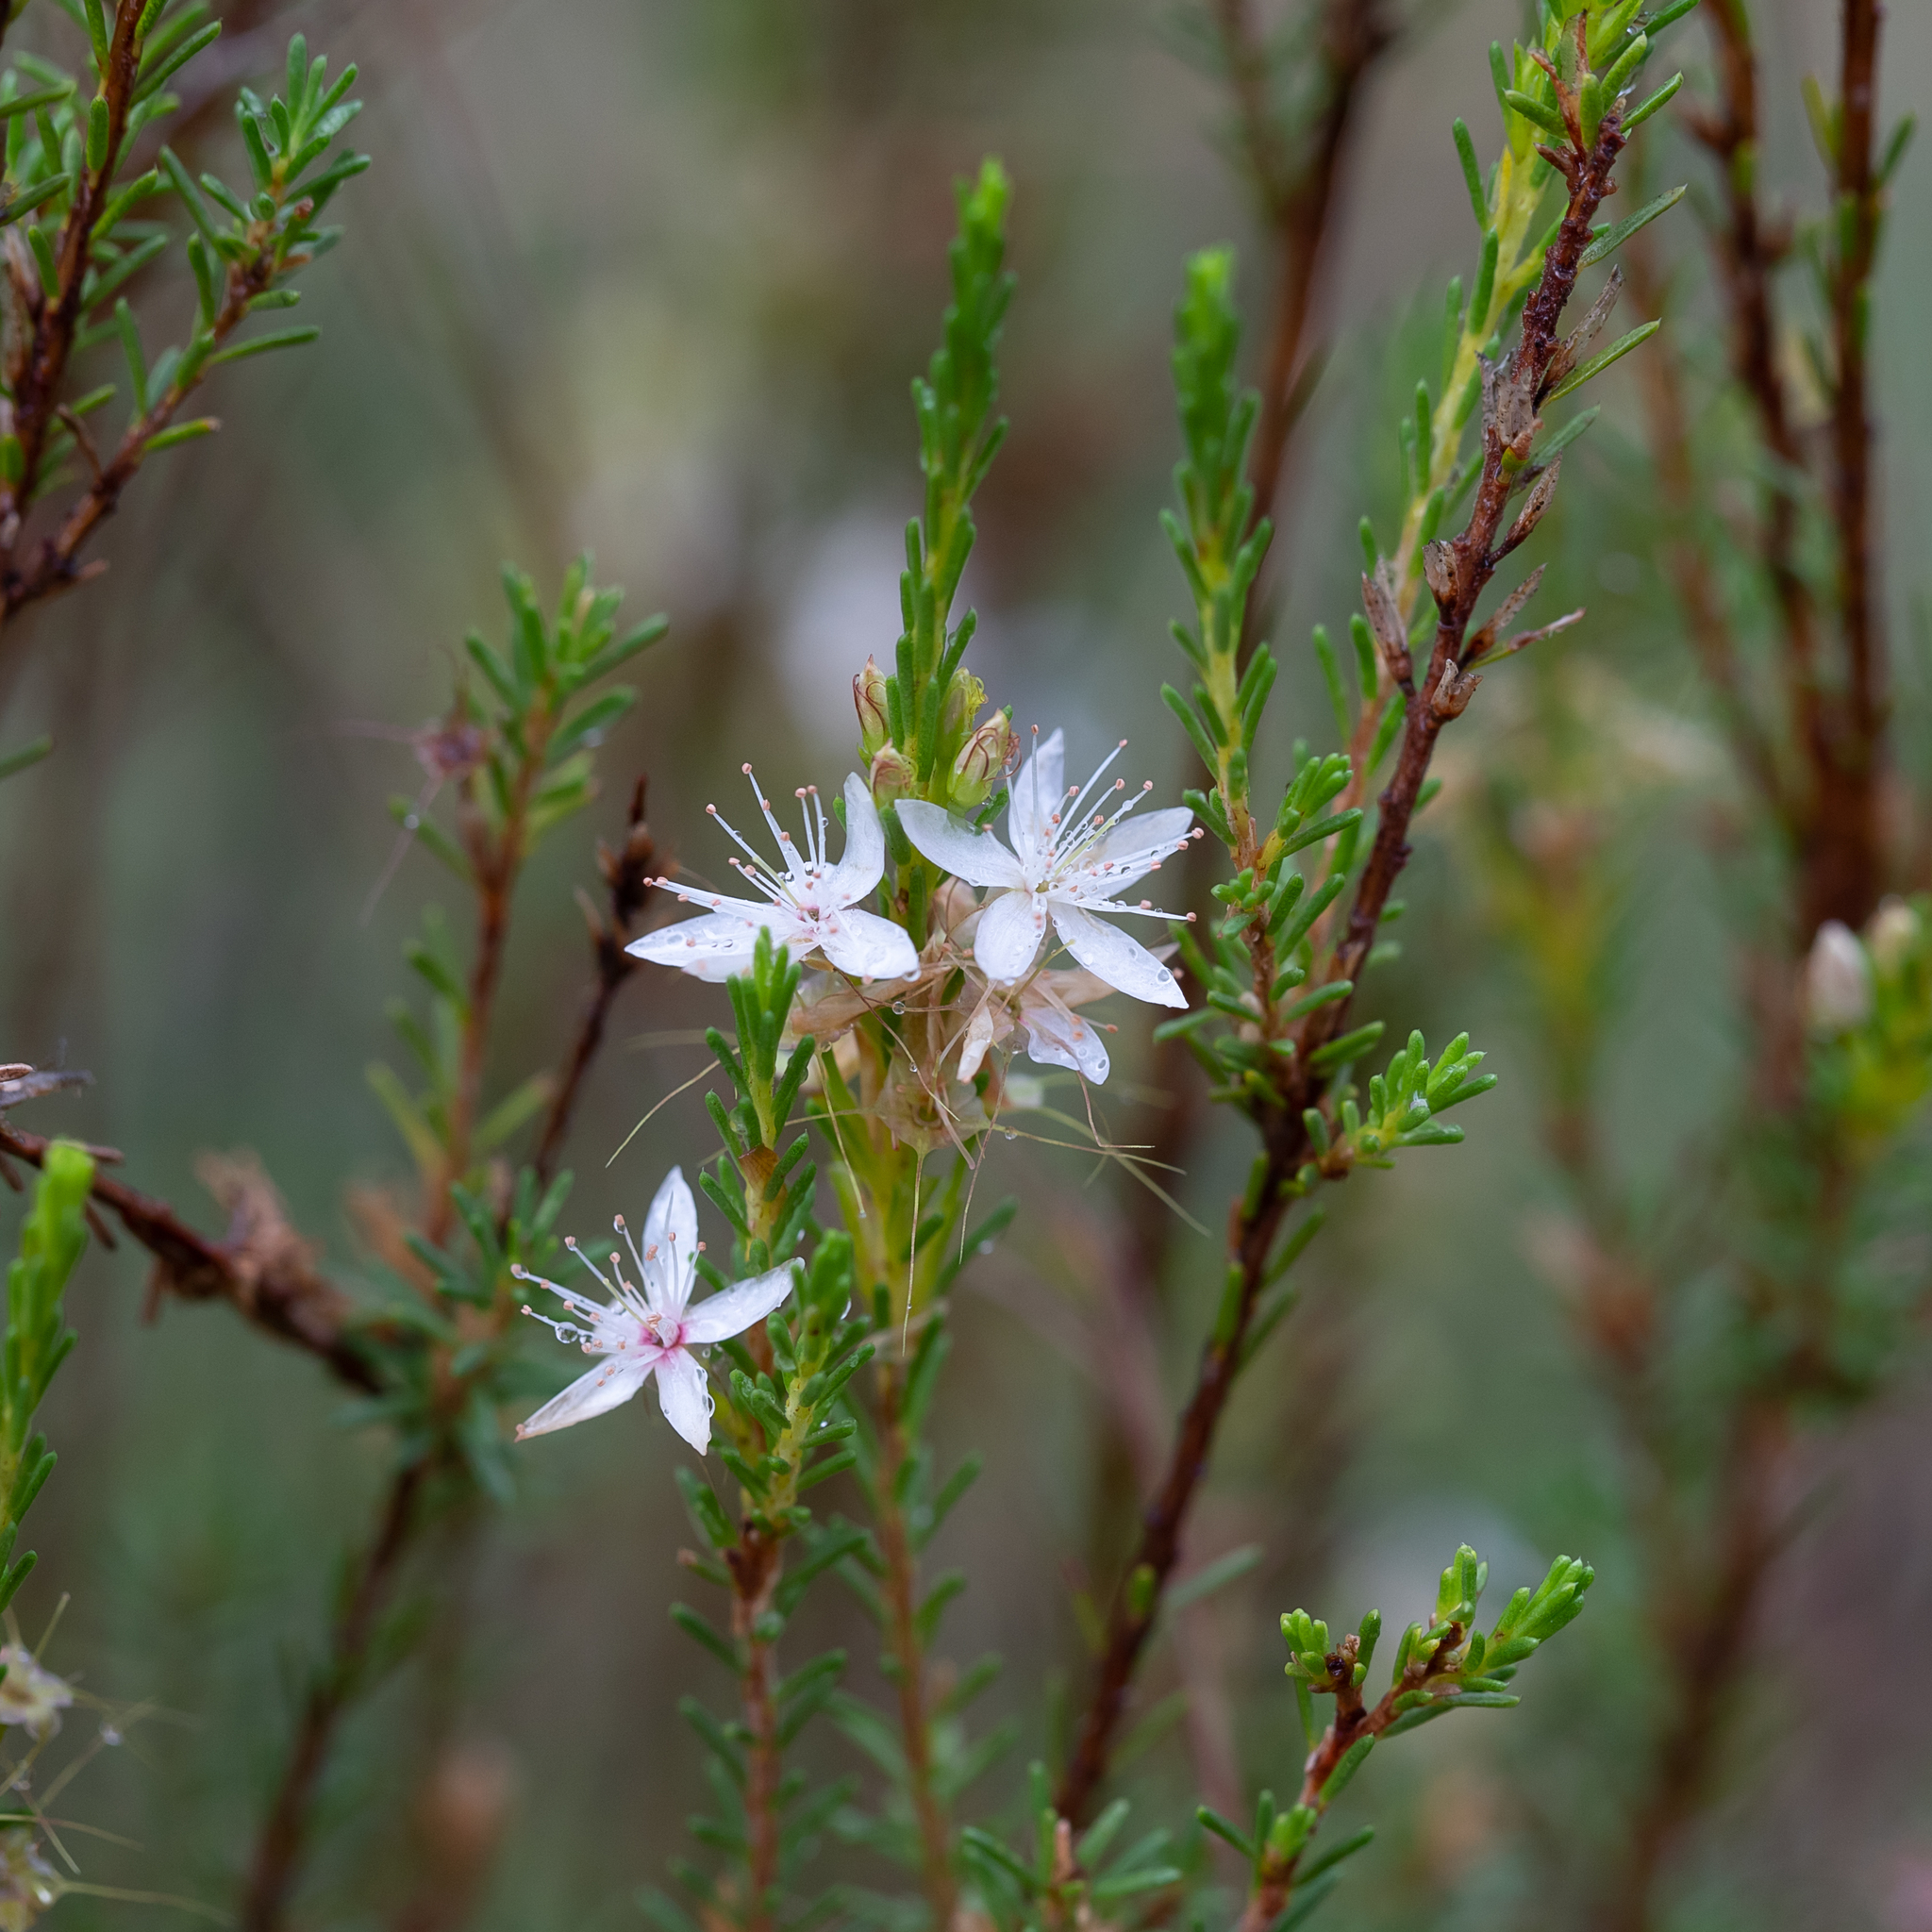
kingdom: Plantae
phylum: Tracheophyta
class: Magnoliopsida
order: Myrtales
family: Myrtaceae
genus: Calytrix
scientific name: Calytrix tetragona
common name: Common fringe myrtle
